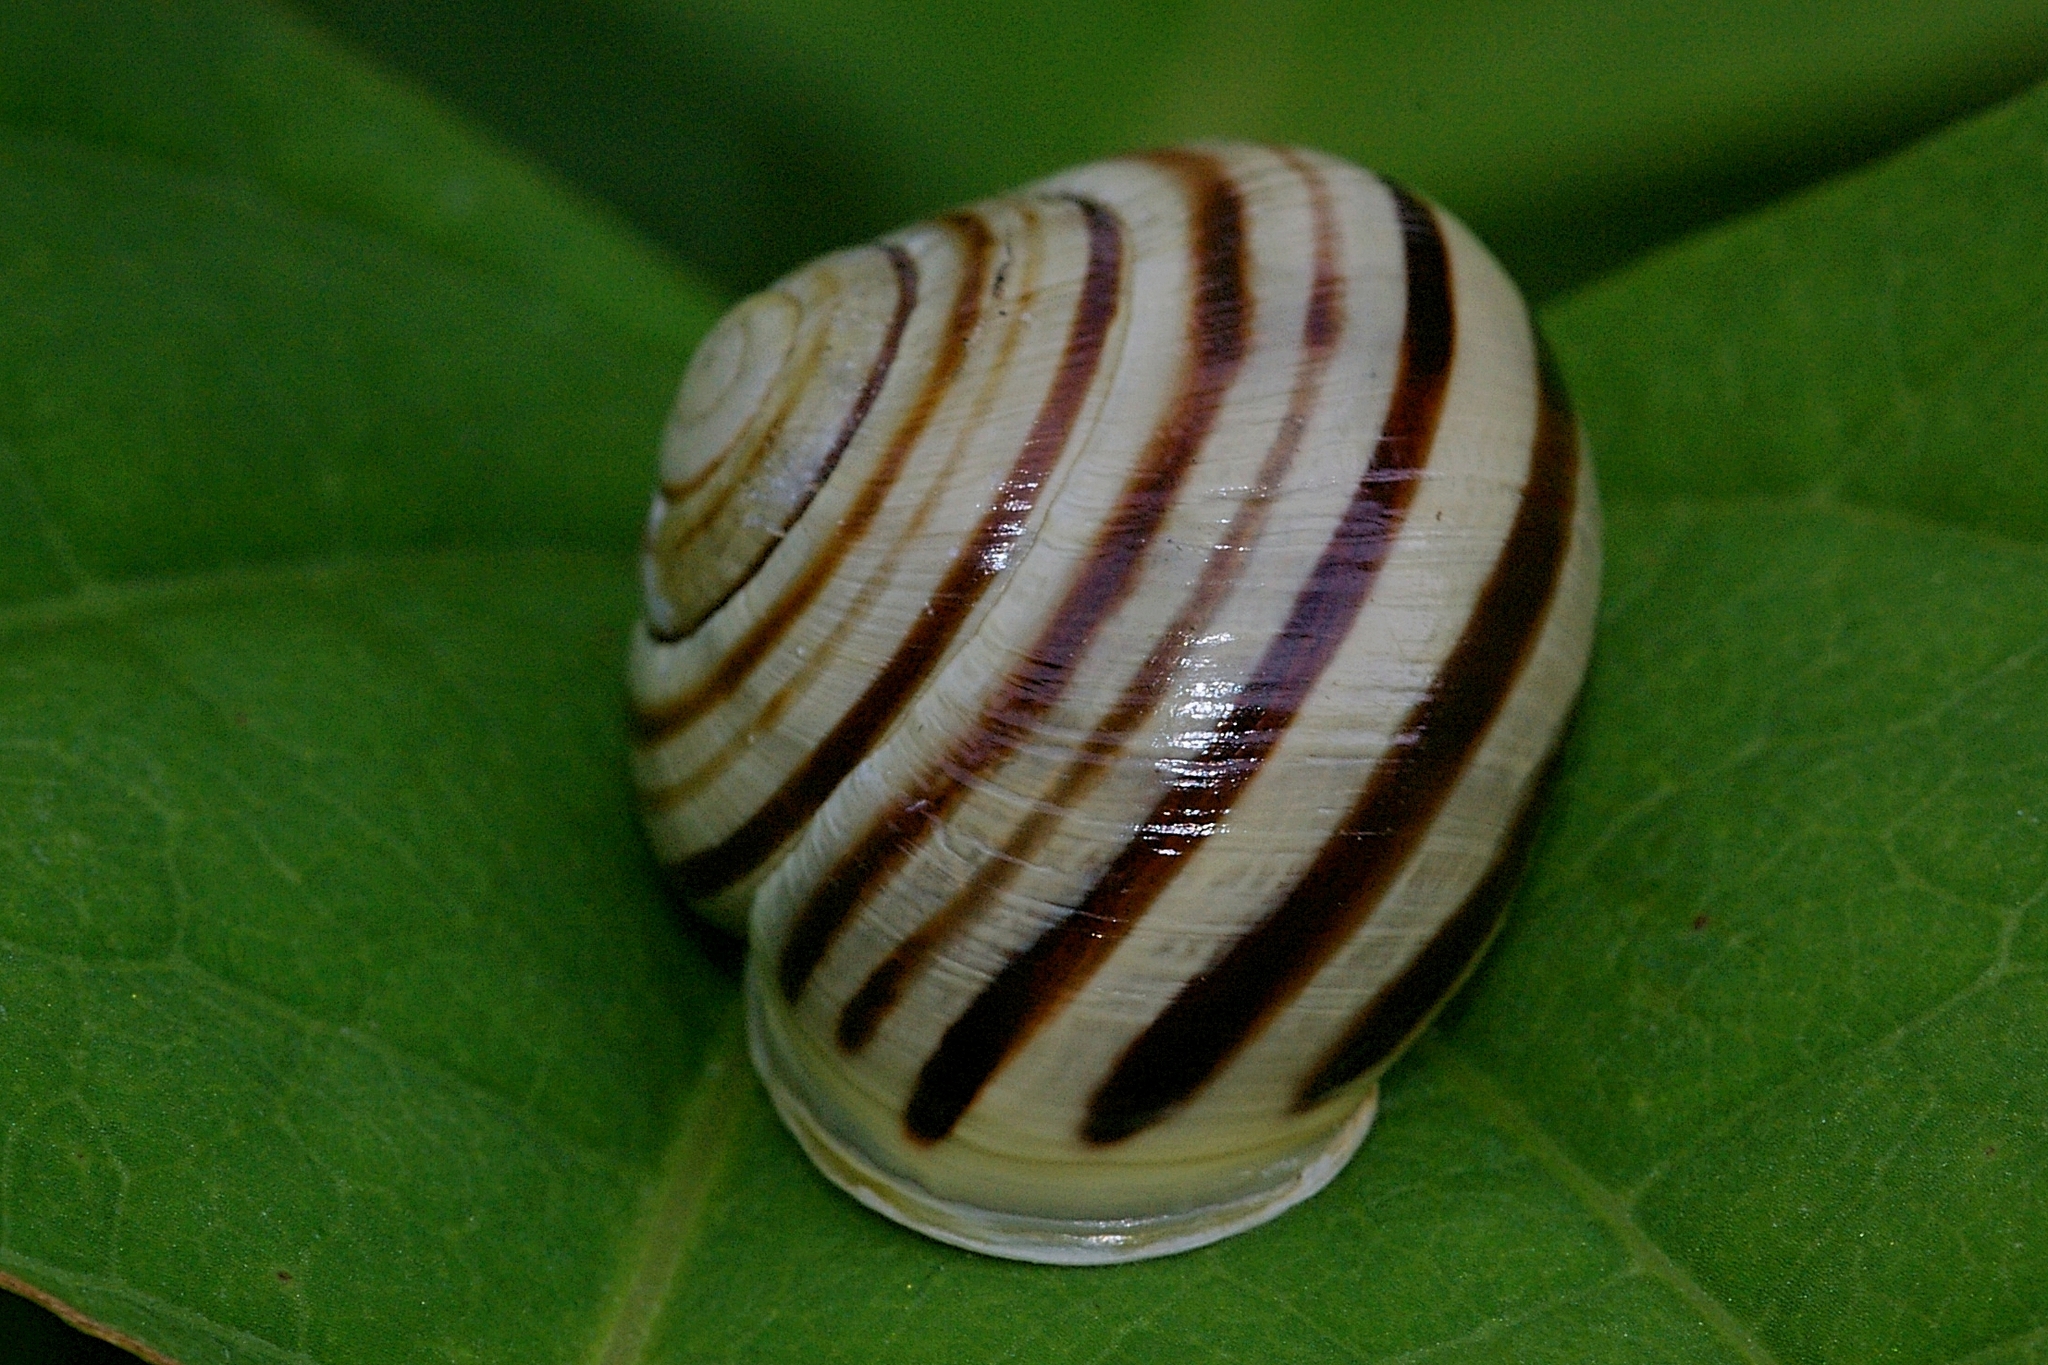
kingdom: Animalia
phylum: Mollusca
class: Gastropoda
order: Stylommatophora
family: Helicidae
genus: Cepaea
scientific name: Cepaea hortensis
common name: White-lip gardensnail
